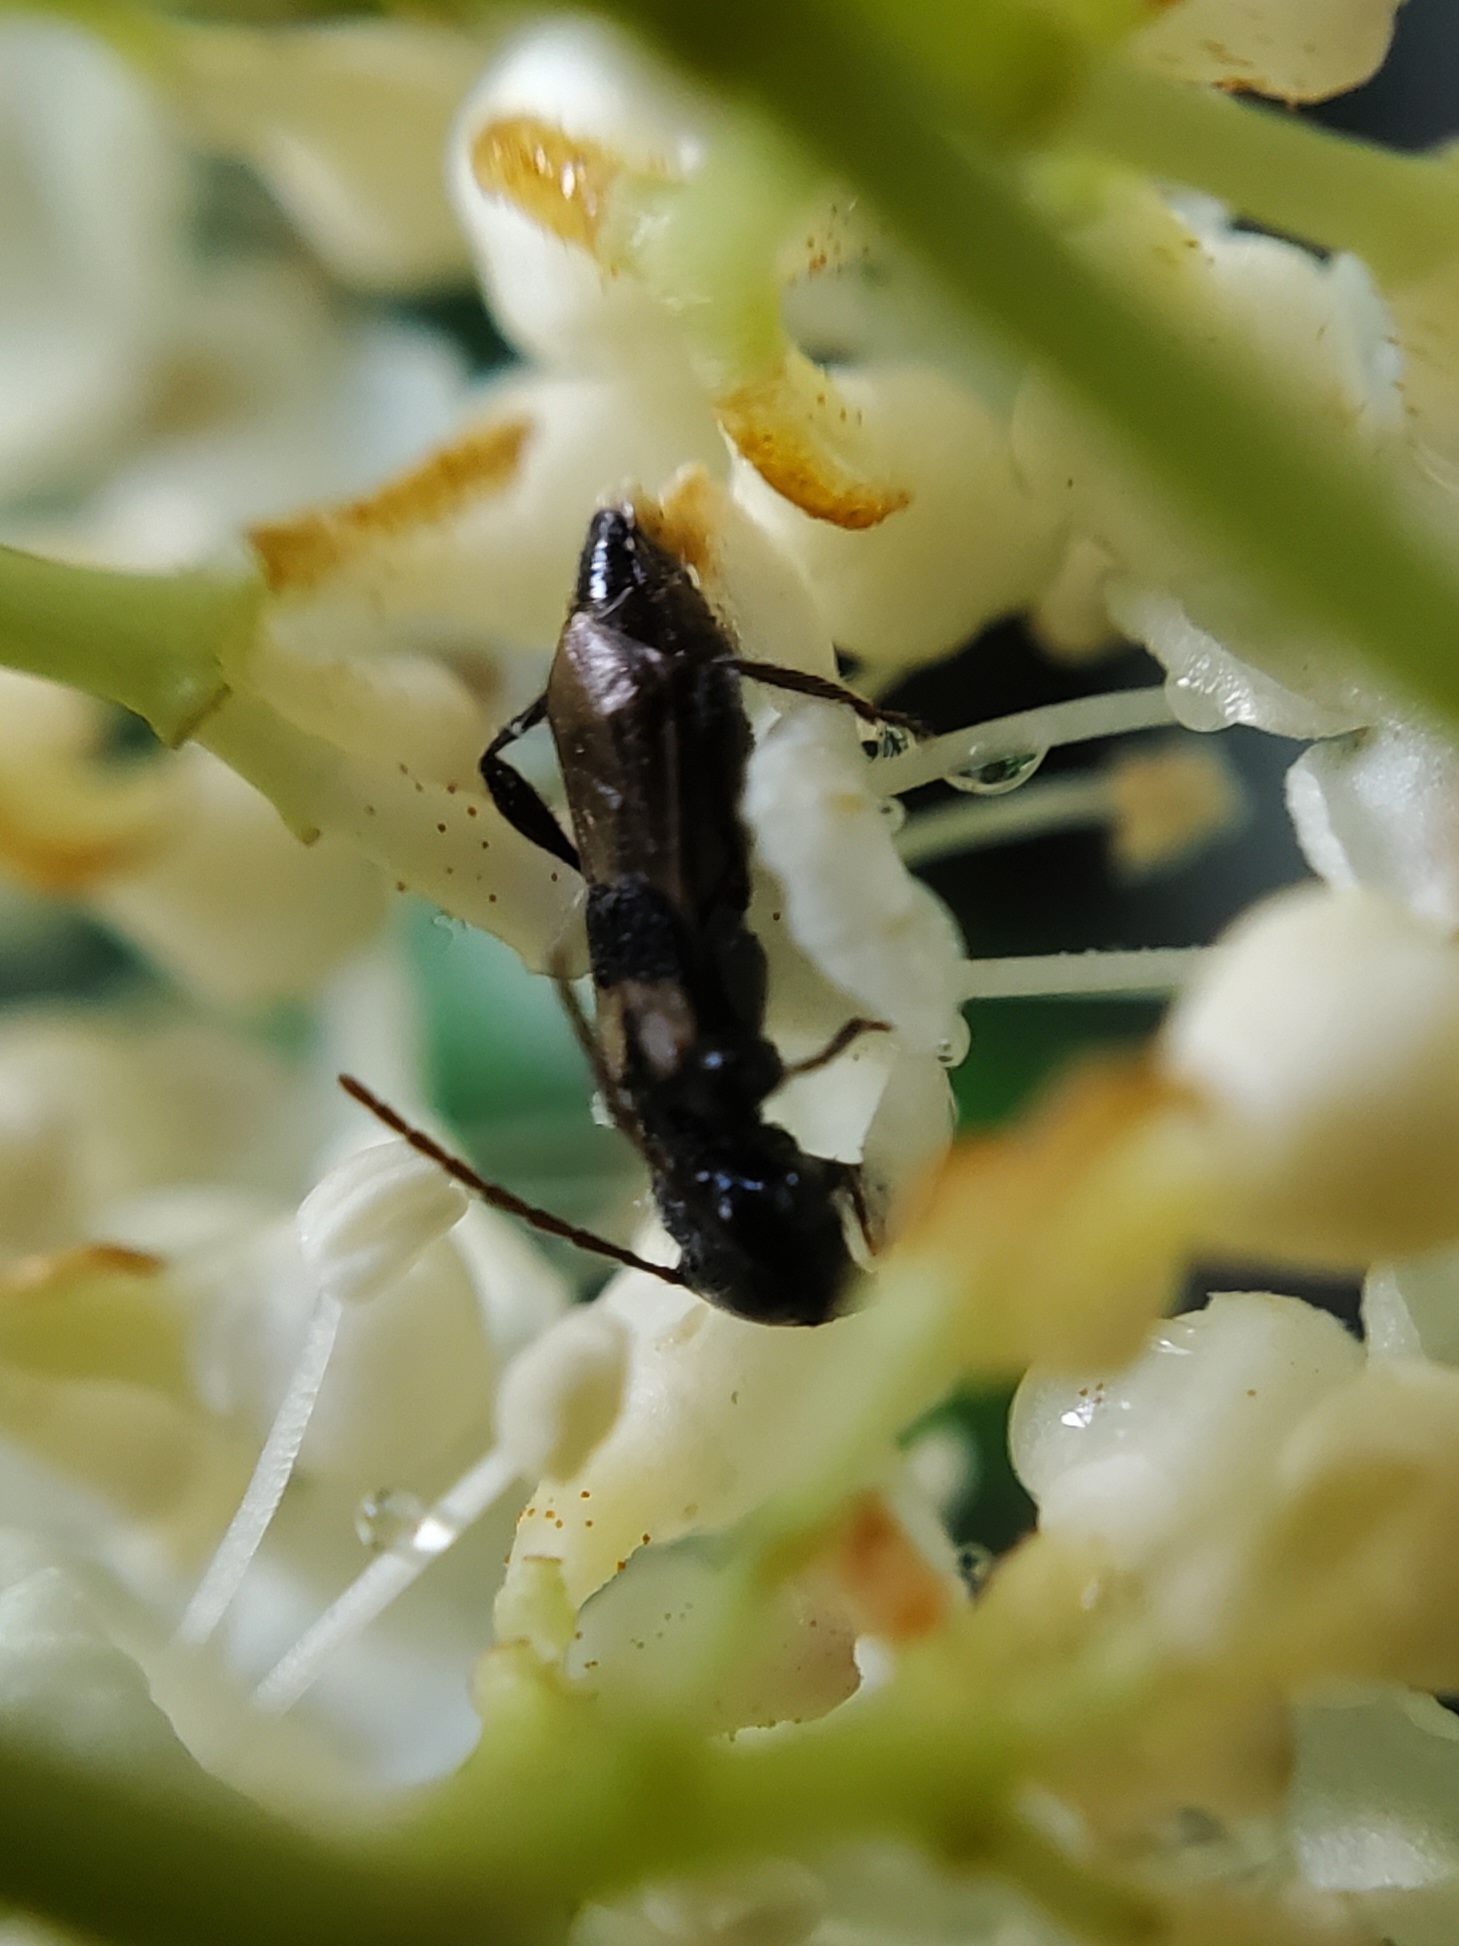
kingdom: Animalia
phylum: Arthropoda
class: Insecta
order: Coleoptera
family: Cerambycidae
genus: Molorchus
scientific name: Molorchus bimaculatus
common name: Bimaculate longhorn beetle
